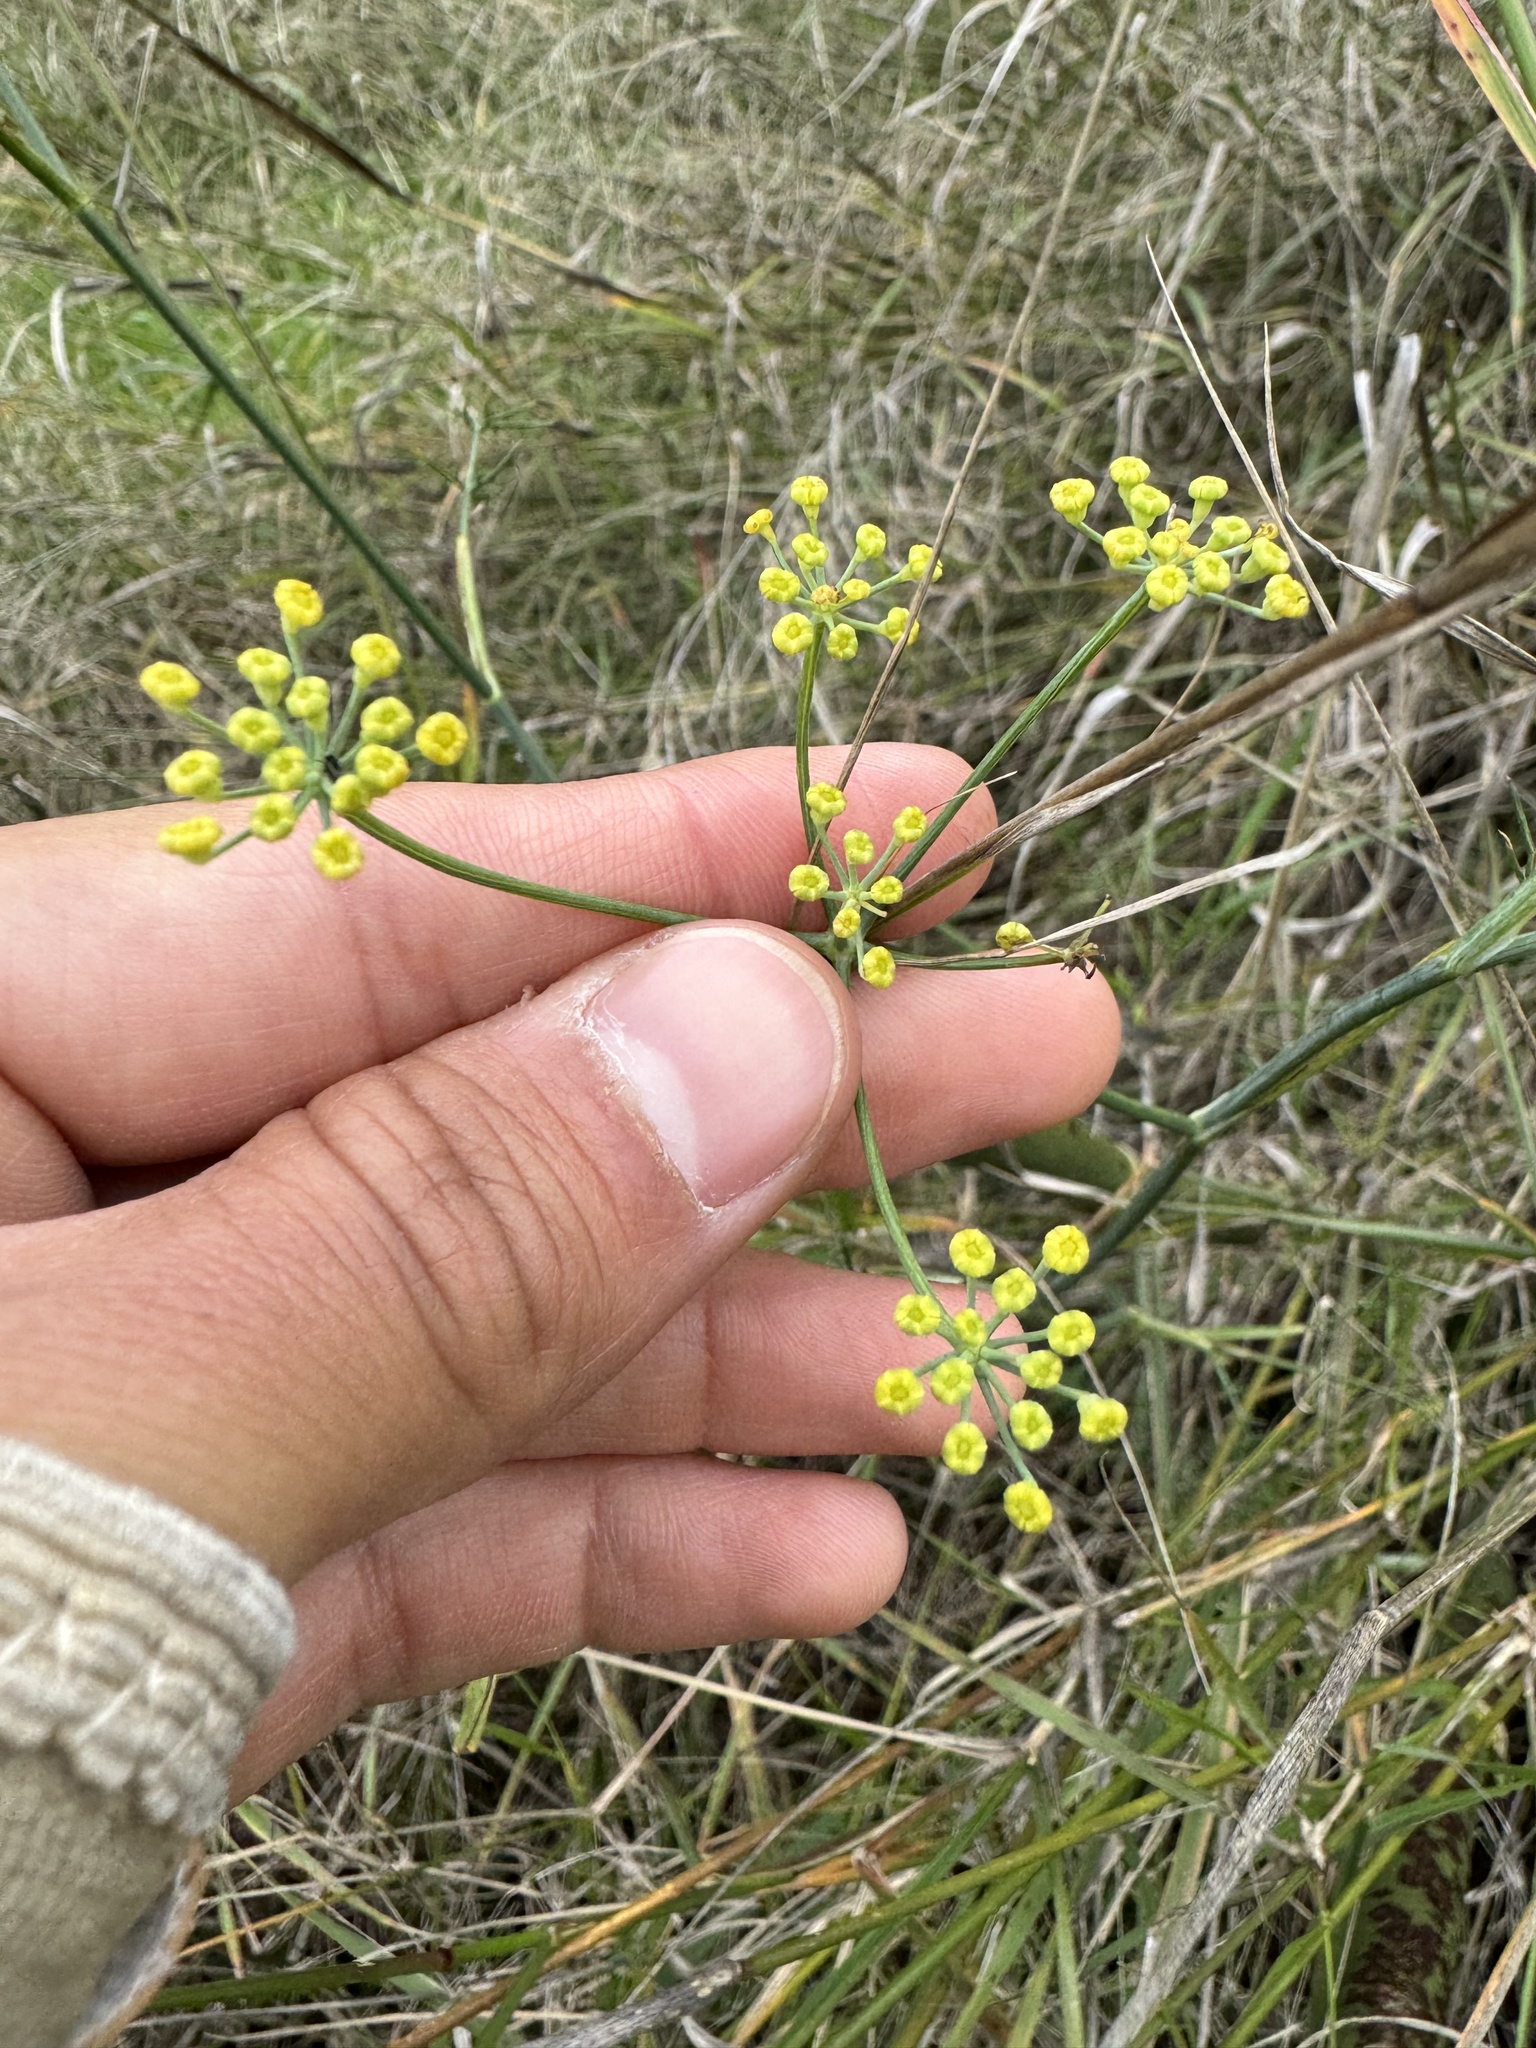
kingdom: Plantae
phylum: Tracheophyta
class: Magnoliopsida
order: Apiales
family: Apiaceae
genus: Foeniculum
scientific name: Foeniculum vulgare
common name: Fennel
